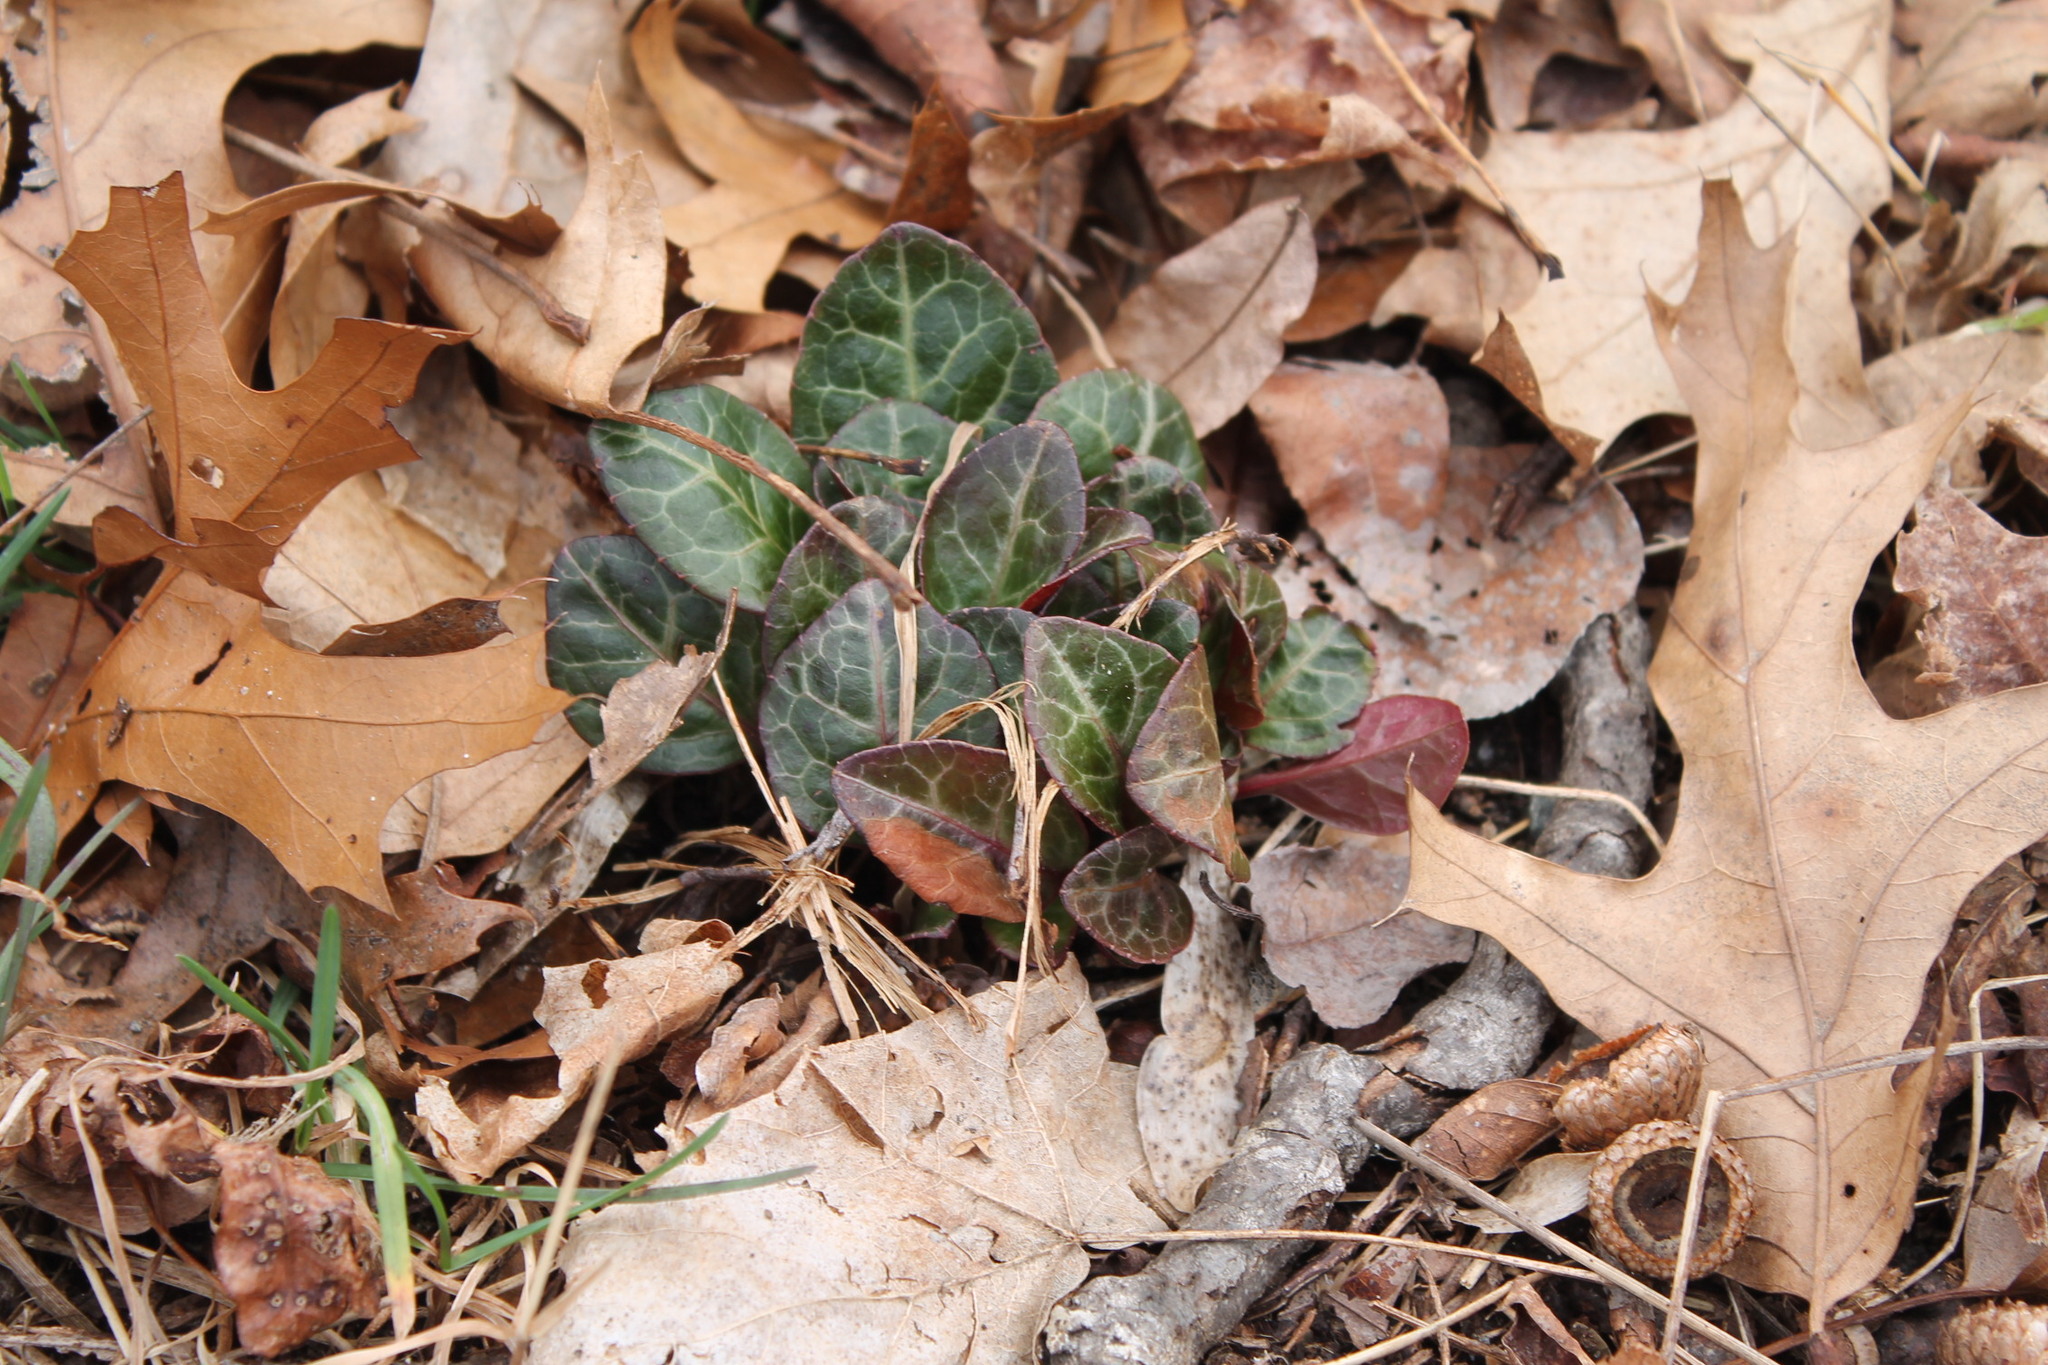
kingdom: Plantae
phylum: Tracheophyta
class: Magnoliopsida
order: Ericales
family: Ericaceae
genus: Pyrola
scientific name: Pyrola americana
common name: American wintergreen
